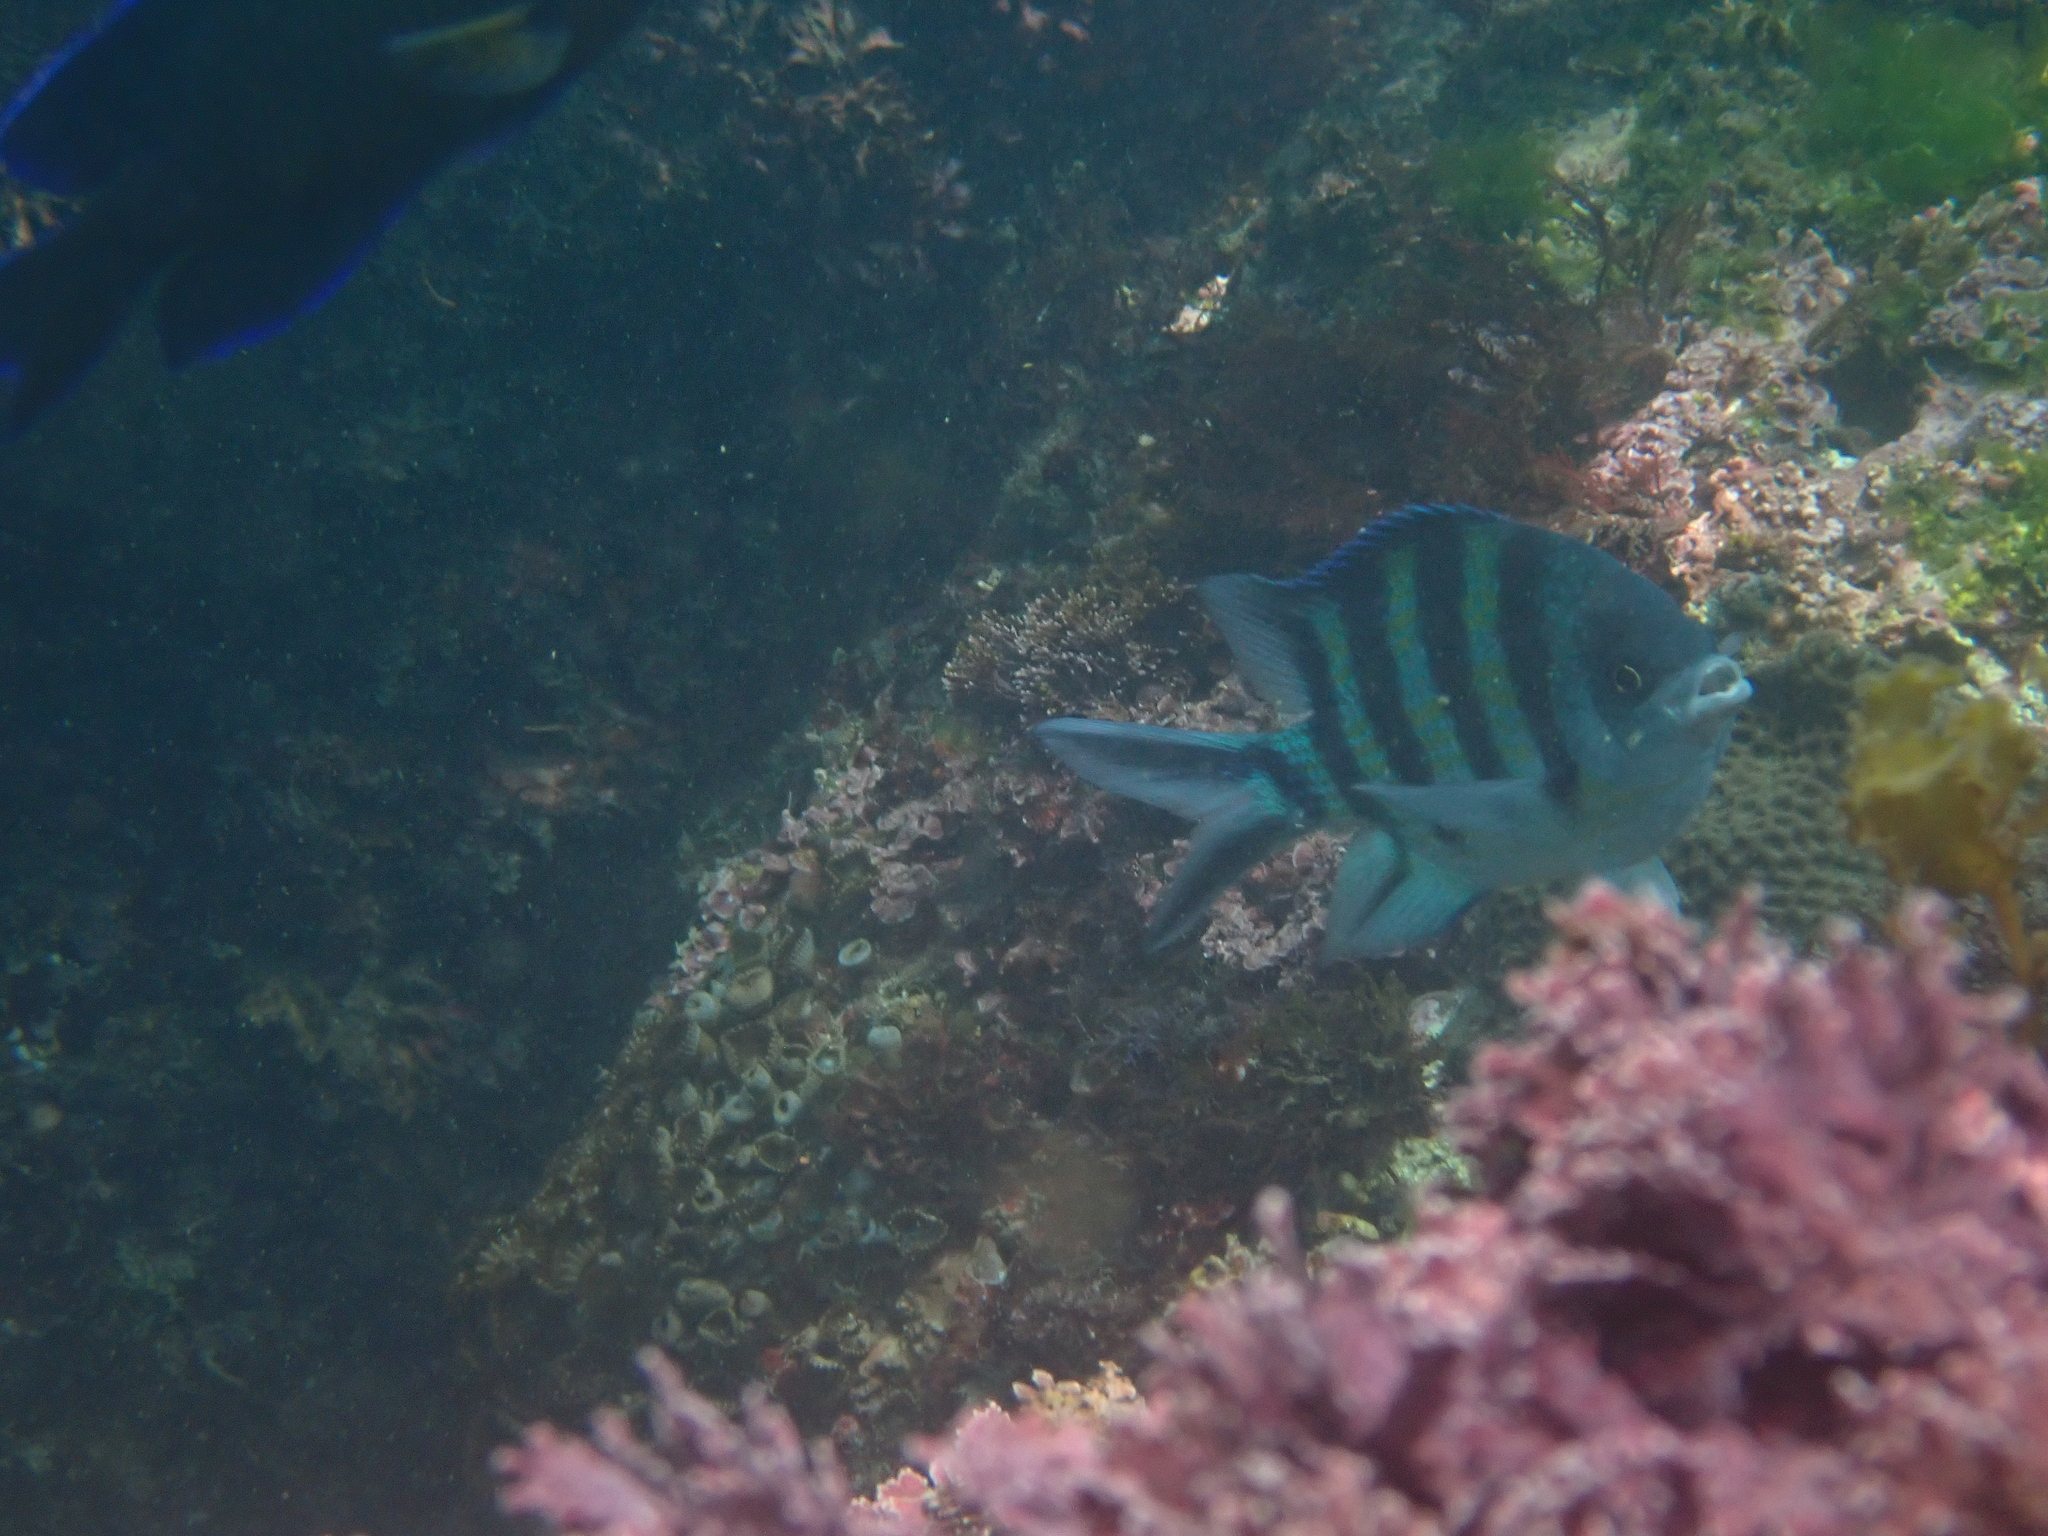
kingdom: Animalia
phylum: Chordata
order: Perciformes
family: Pomacentridae
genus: Abudefduf
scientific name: Abudefduf sexfasciatus
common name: Scissortail sergeant
